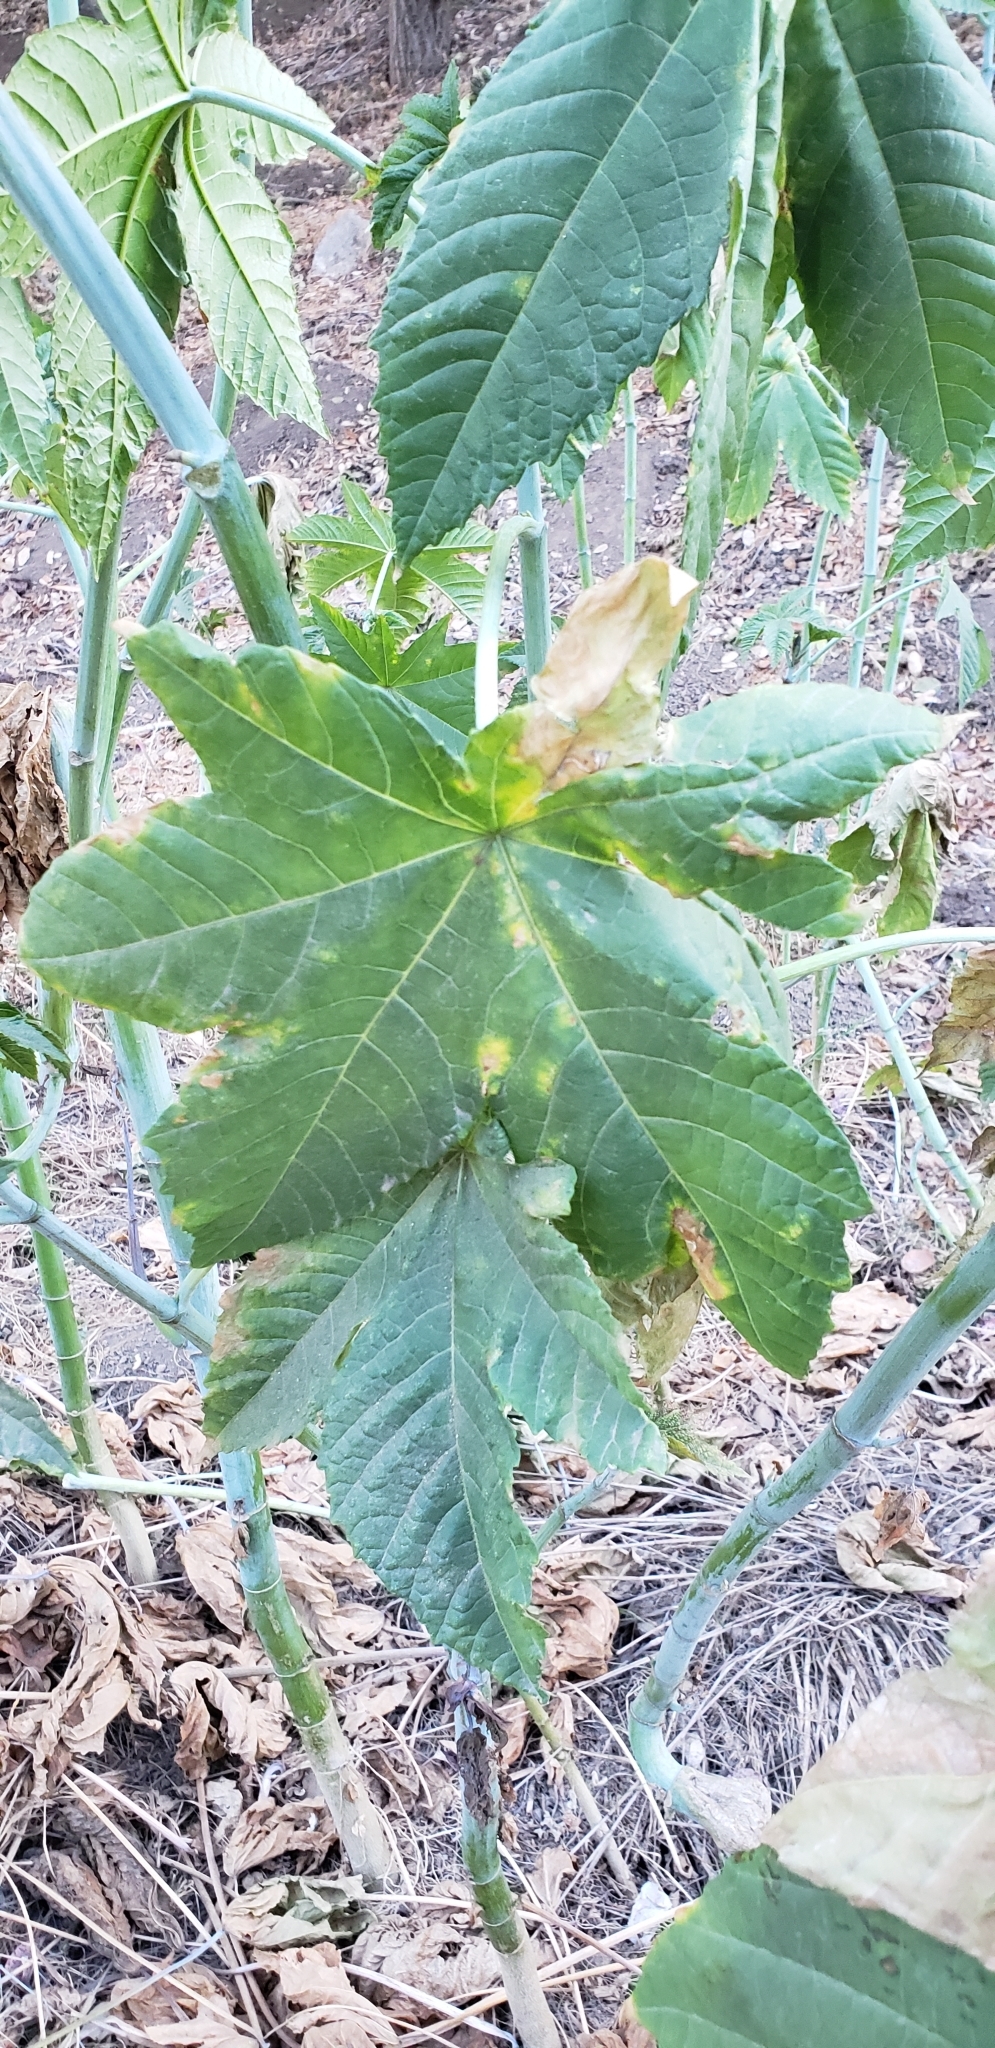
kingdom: Plantae
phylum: Tracheophyta
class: Magnoliopsida
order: Malpighiales
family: Euphorbiaceae
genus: Ricinus
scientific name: Ricinus communis
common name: Castor-oil-plant
